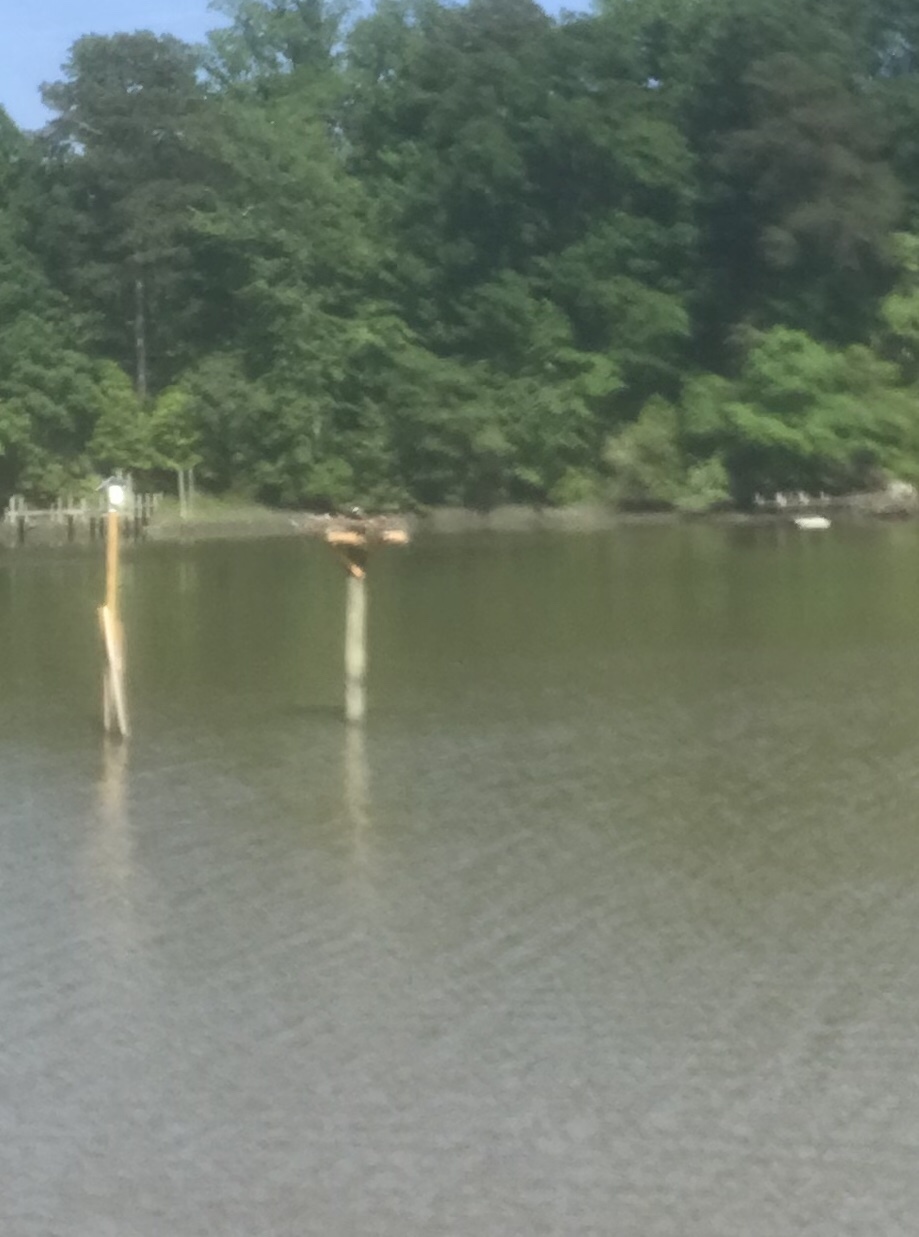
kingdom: Animalia
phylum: Chordata
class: Aves
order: Accipitriformes
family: Pandionidae
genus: Pandion
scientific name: Pandion haliaetus
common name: Osprey
